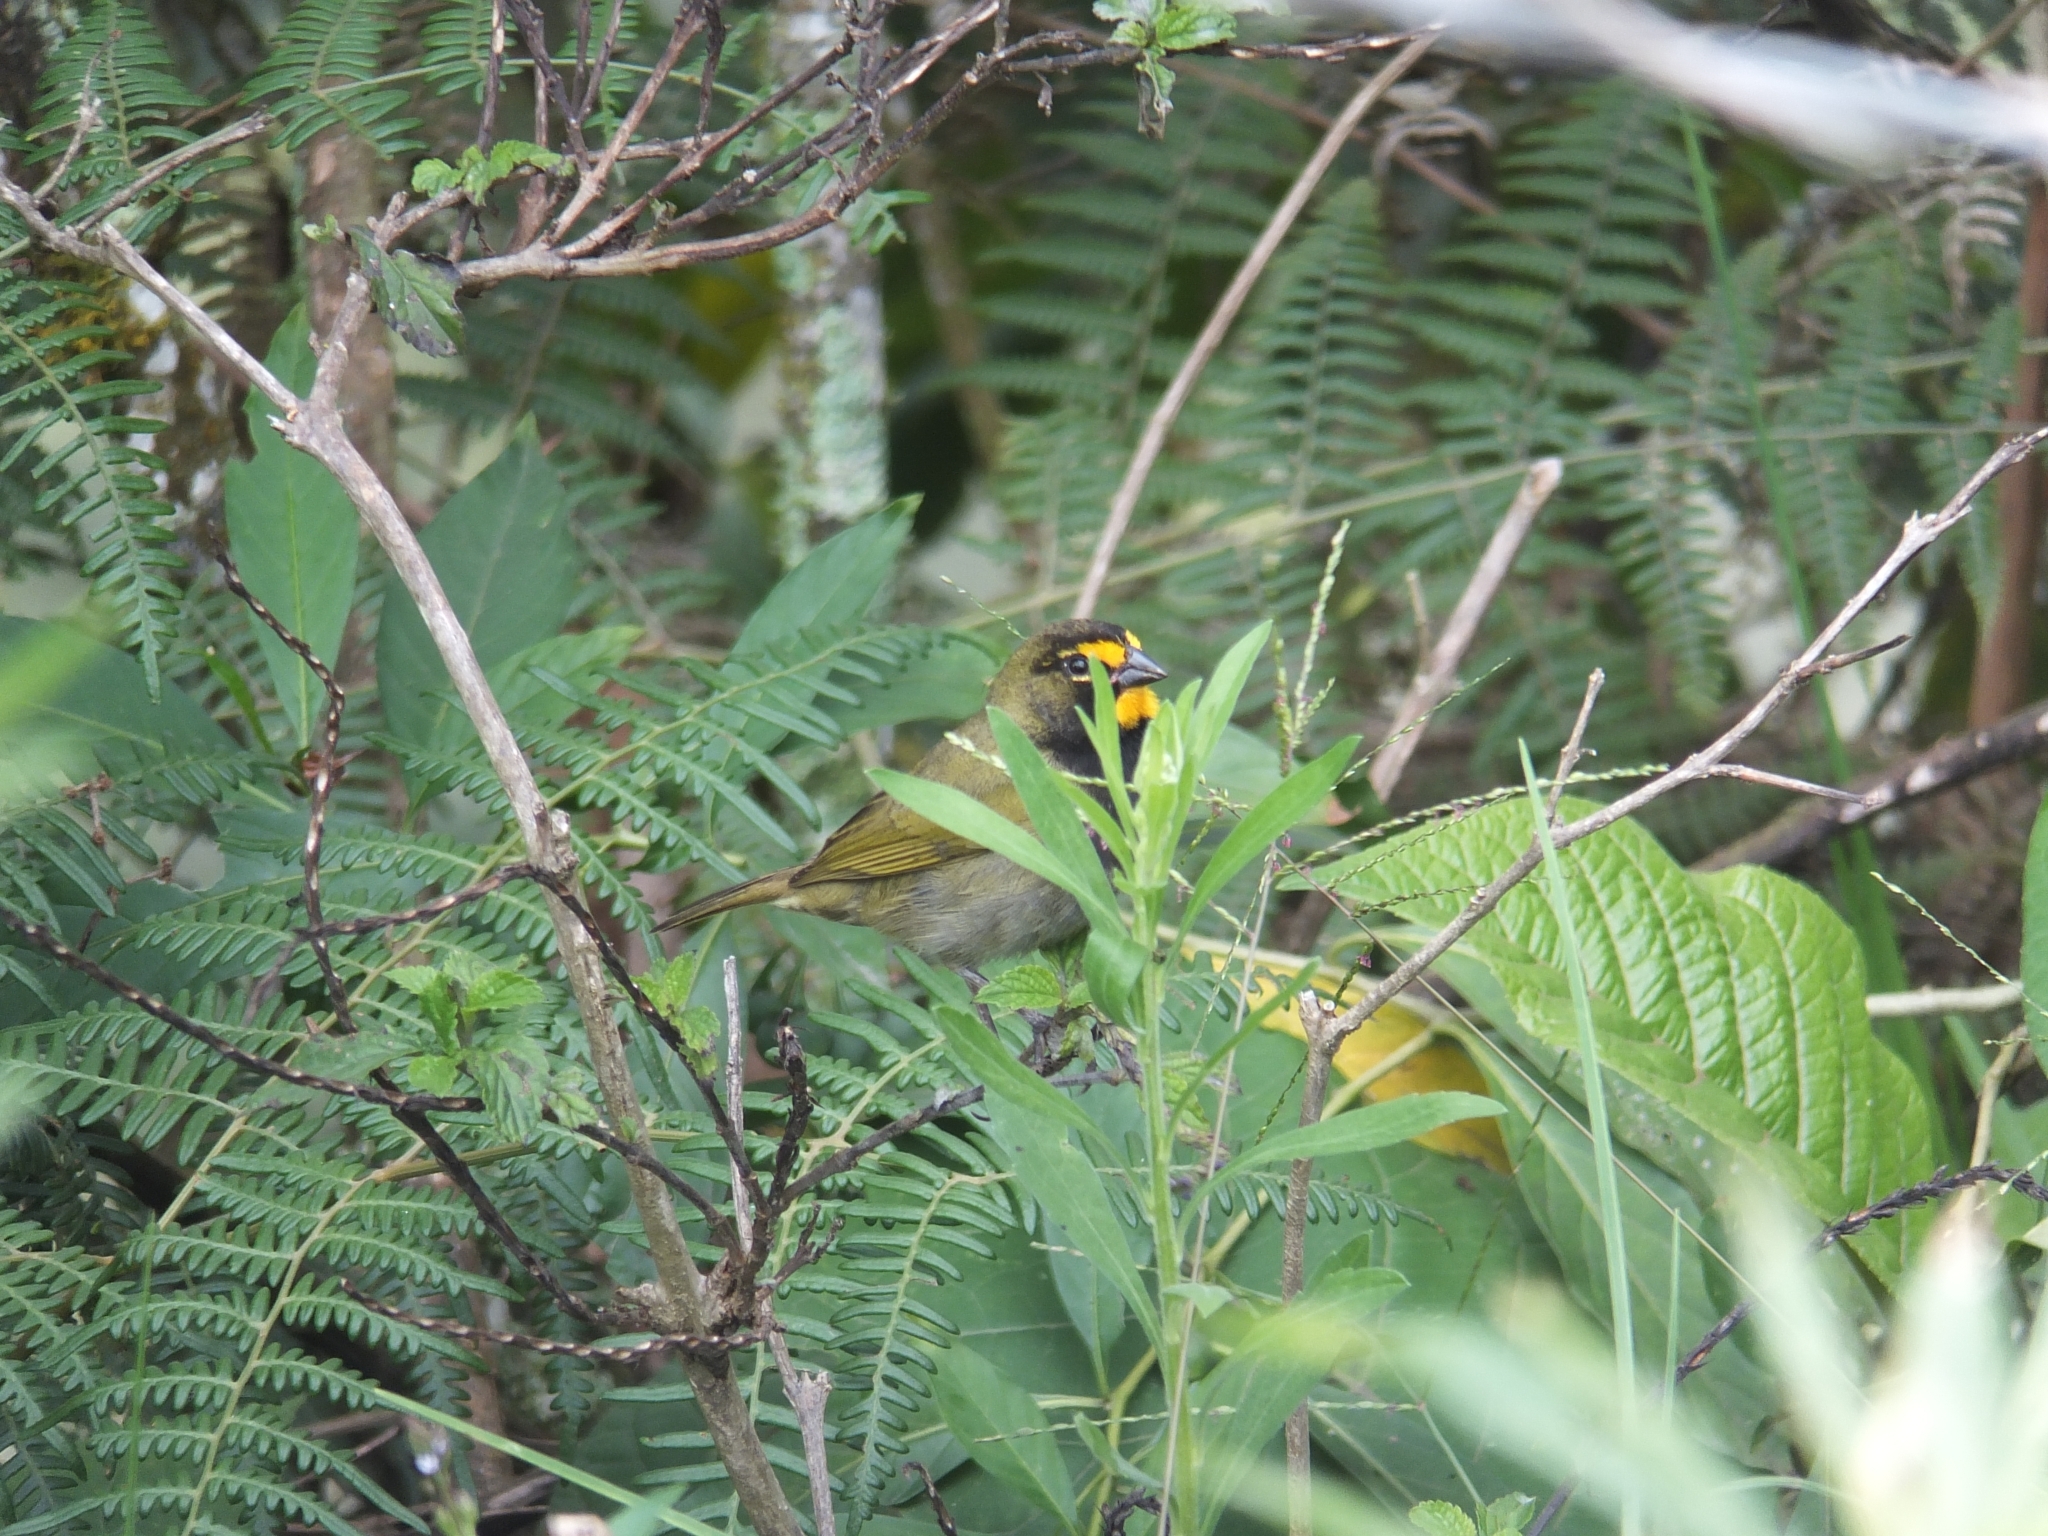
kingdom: Animalia
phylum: Chordata
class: Aves
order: Passeriformes
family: Thraupidae
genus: Tiaris
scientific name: Tiaris olivaceus
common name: Yellow-faced grassquit
